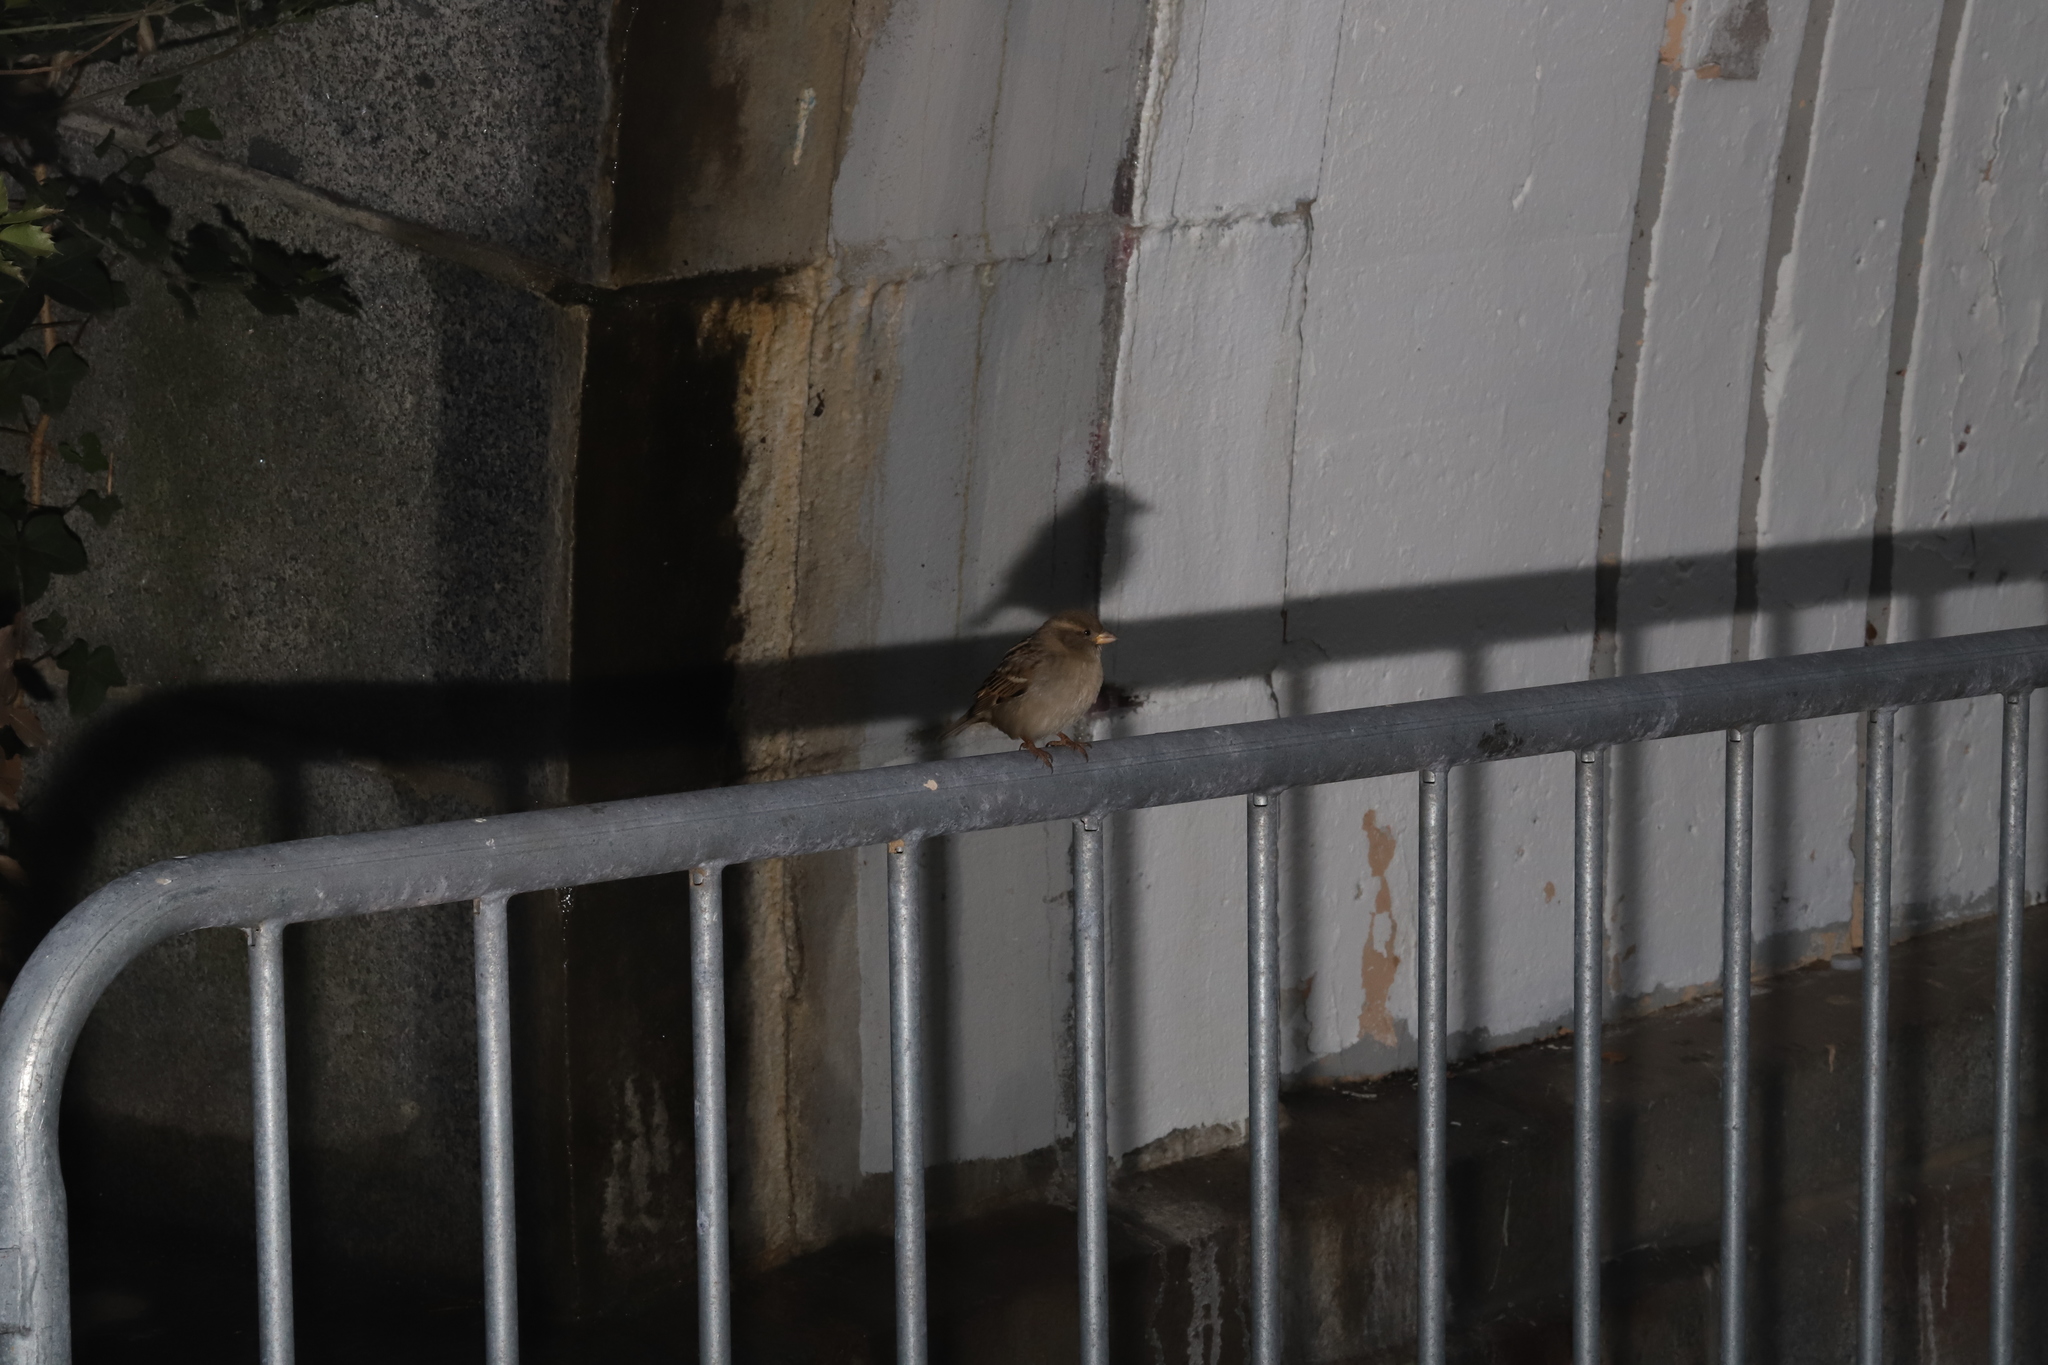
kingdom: Animalia
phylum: Chordata
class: Aves
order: Passeriformes
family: Passeridae
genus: Passer
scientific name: Passer domesticus
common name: House sparrow
